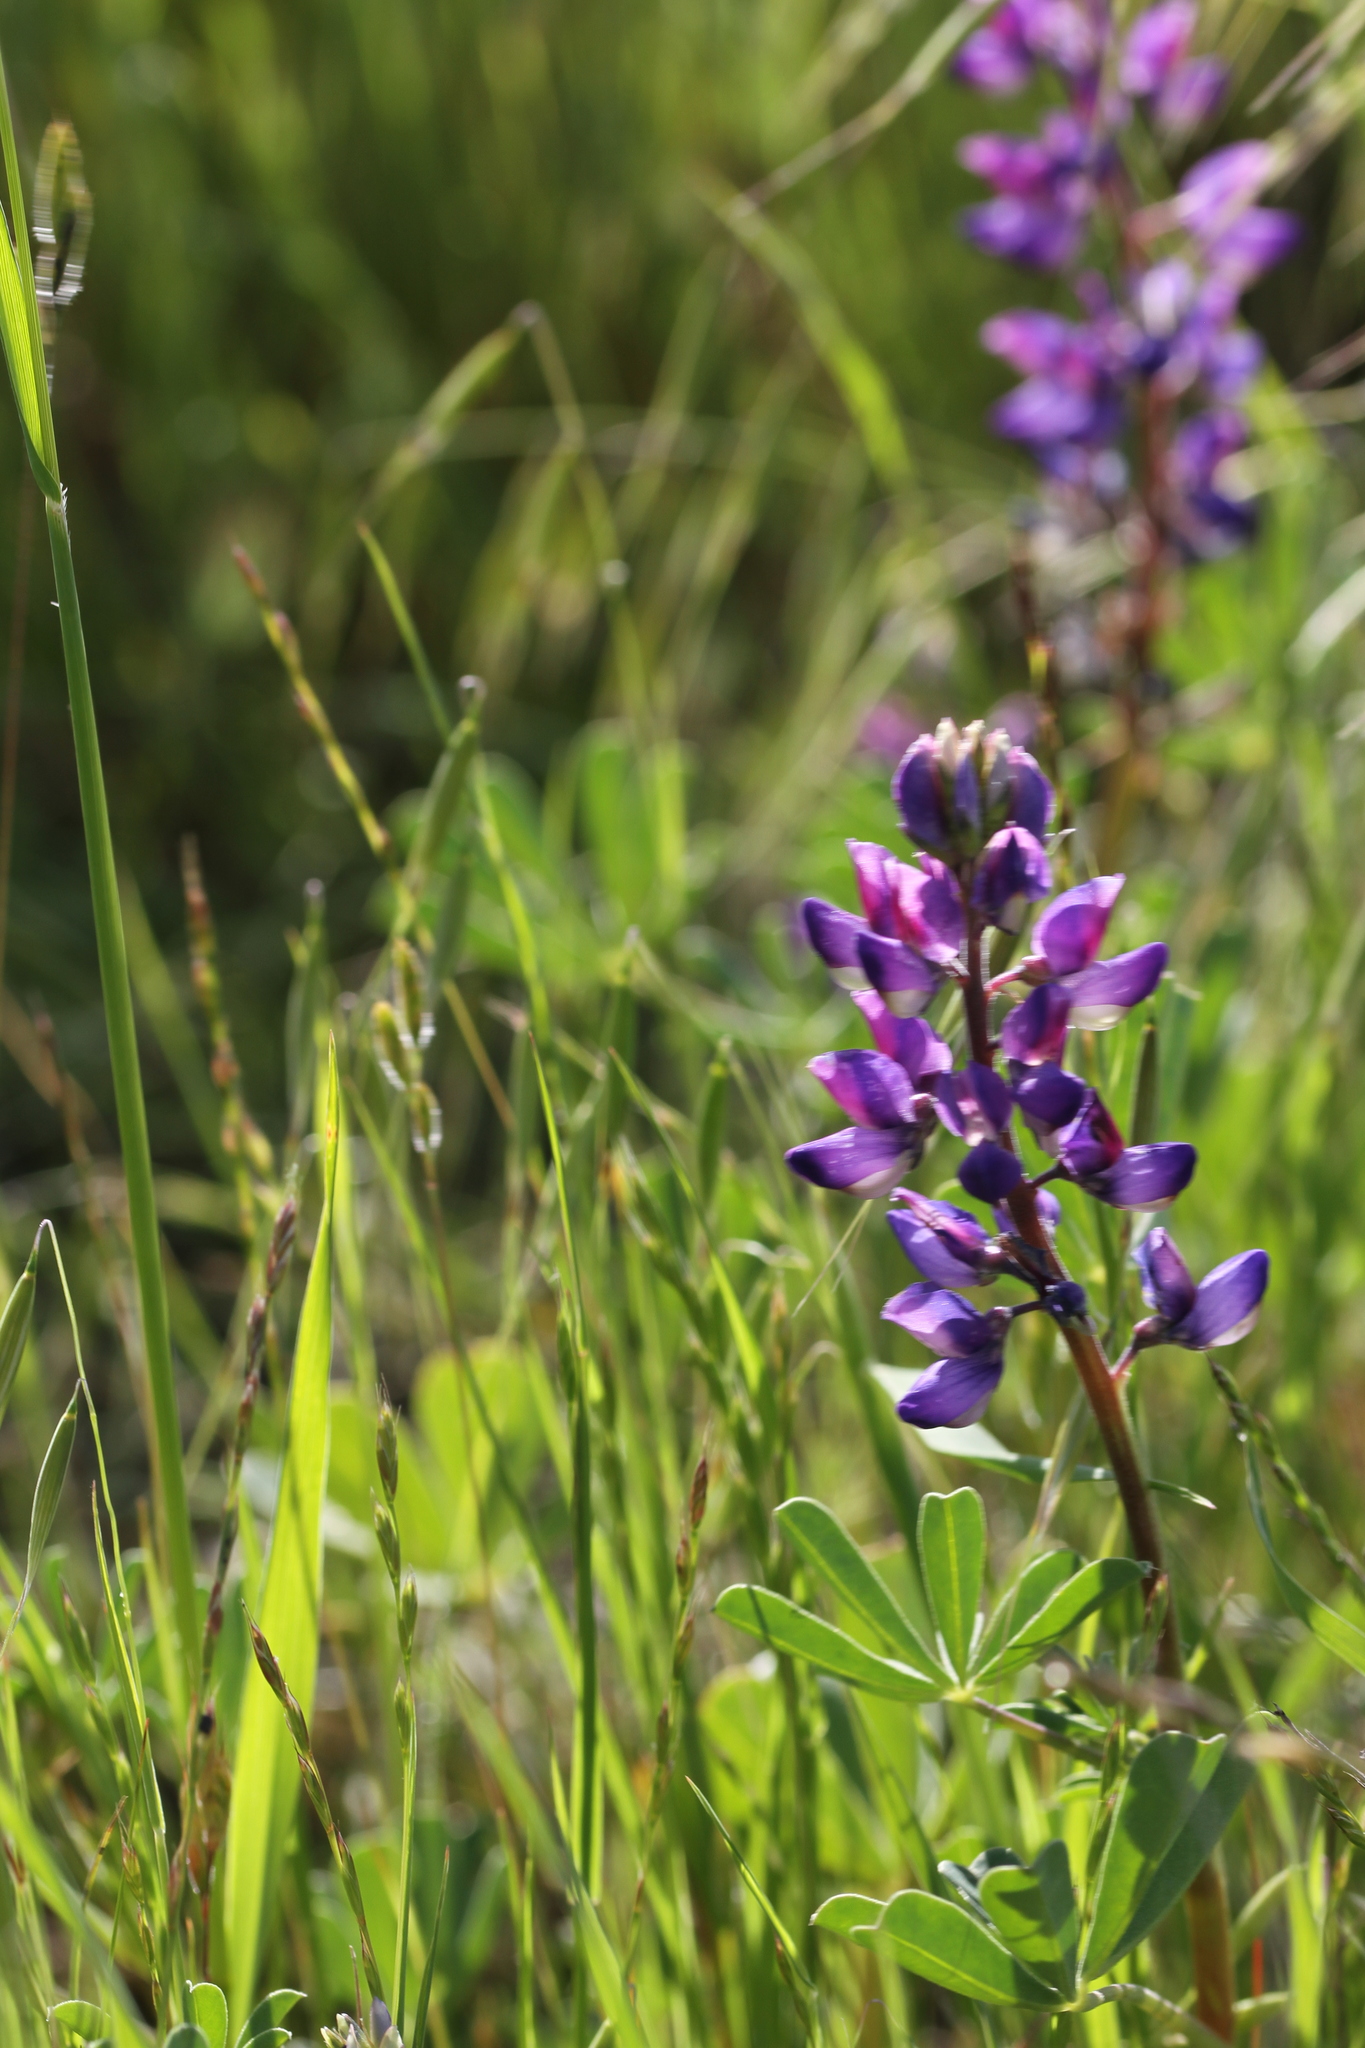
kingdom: Plantae
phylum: Tracheophyta
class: Magnoliopsida
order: Fabales
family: Fabaceae
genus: Lupinus
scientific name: Lupinus succulentus
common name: Arroyo lupine
